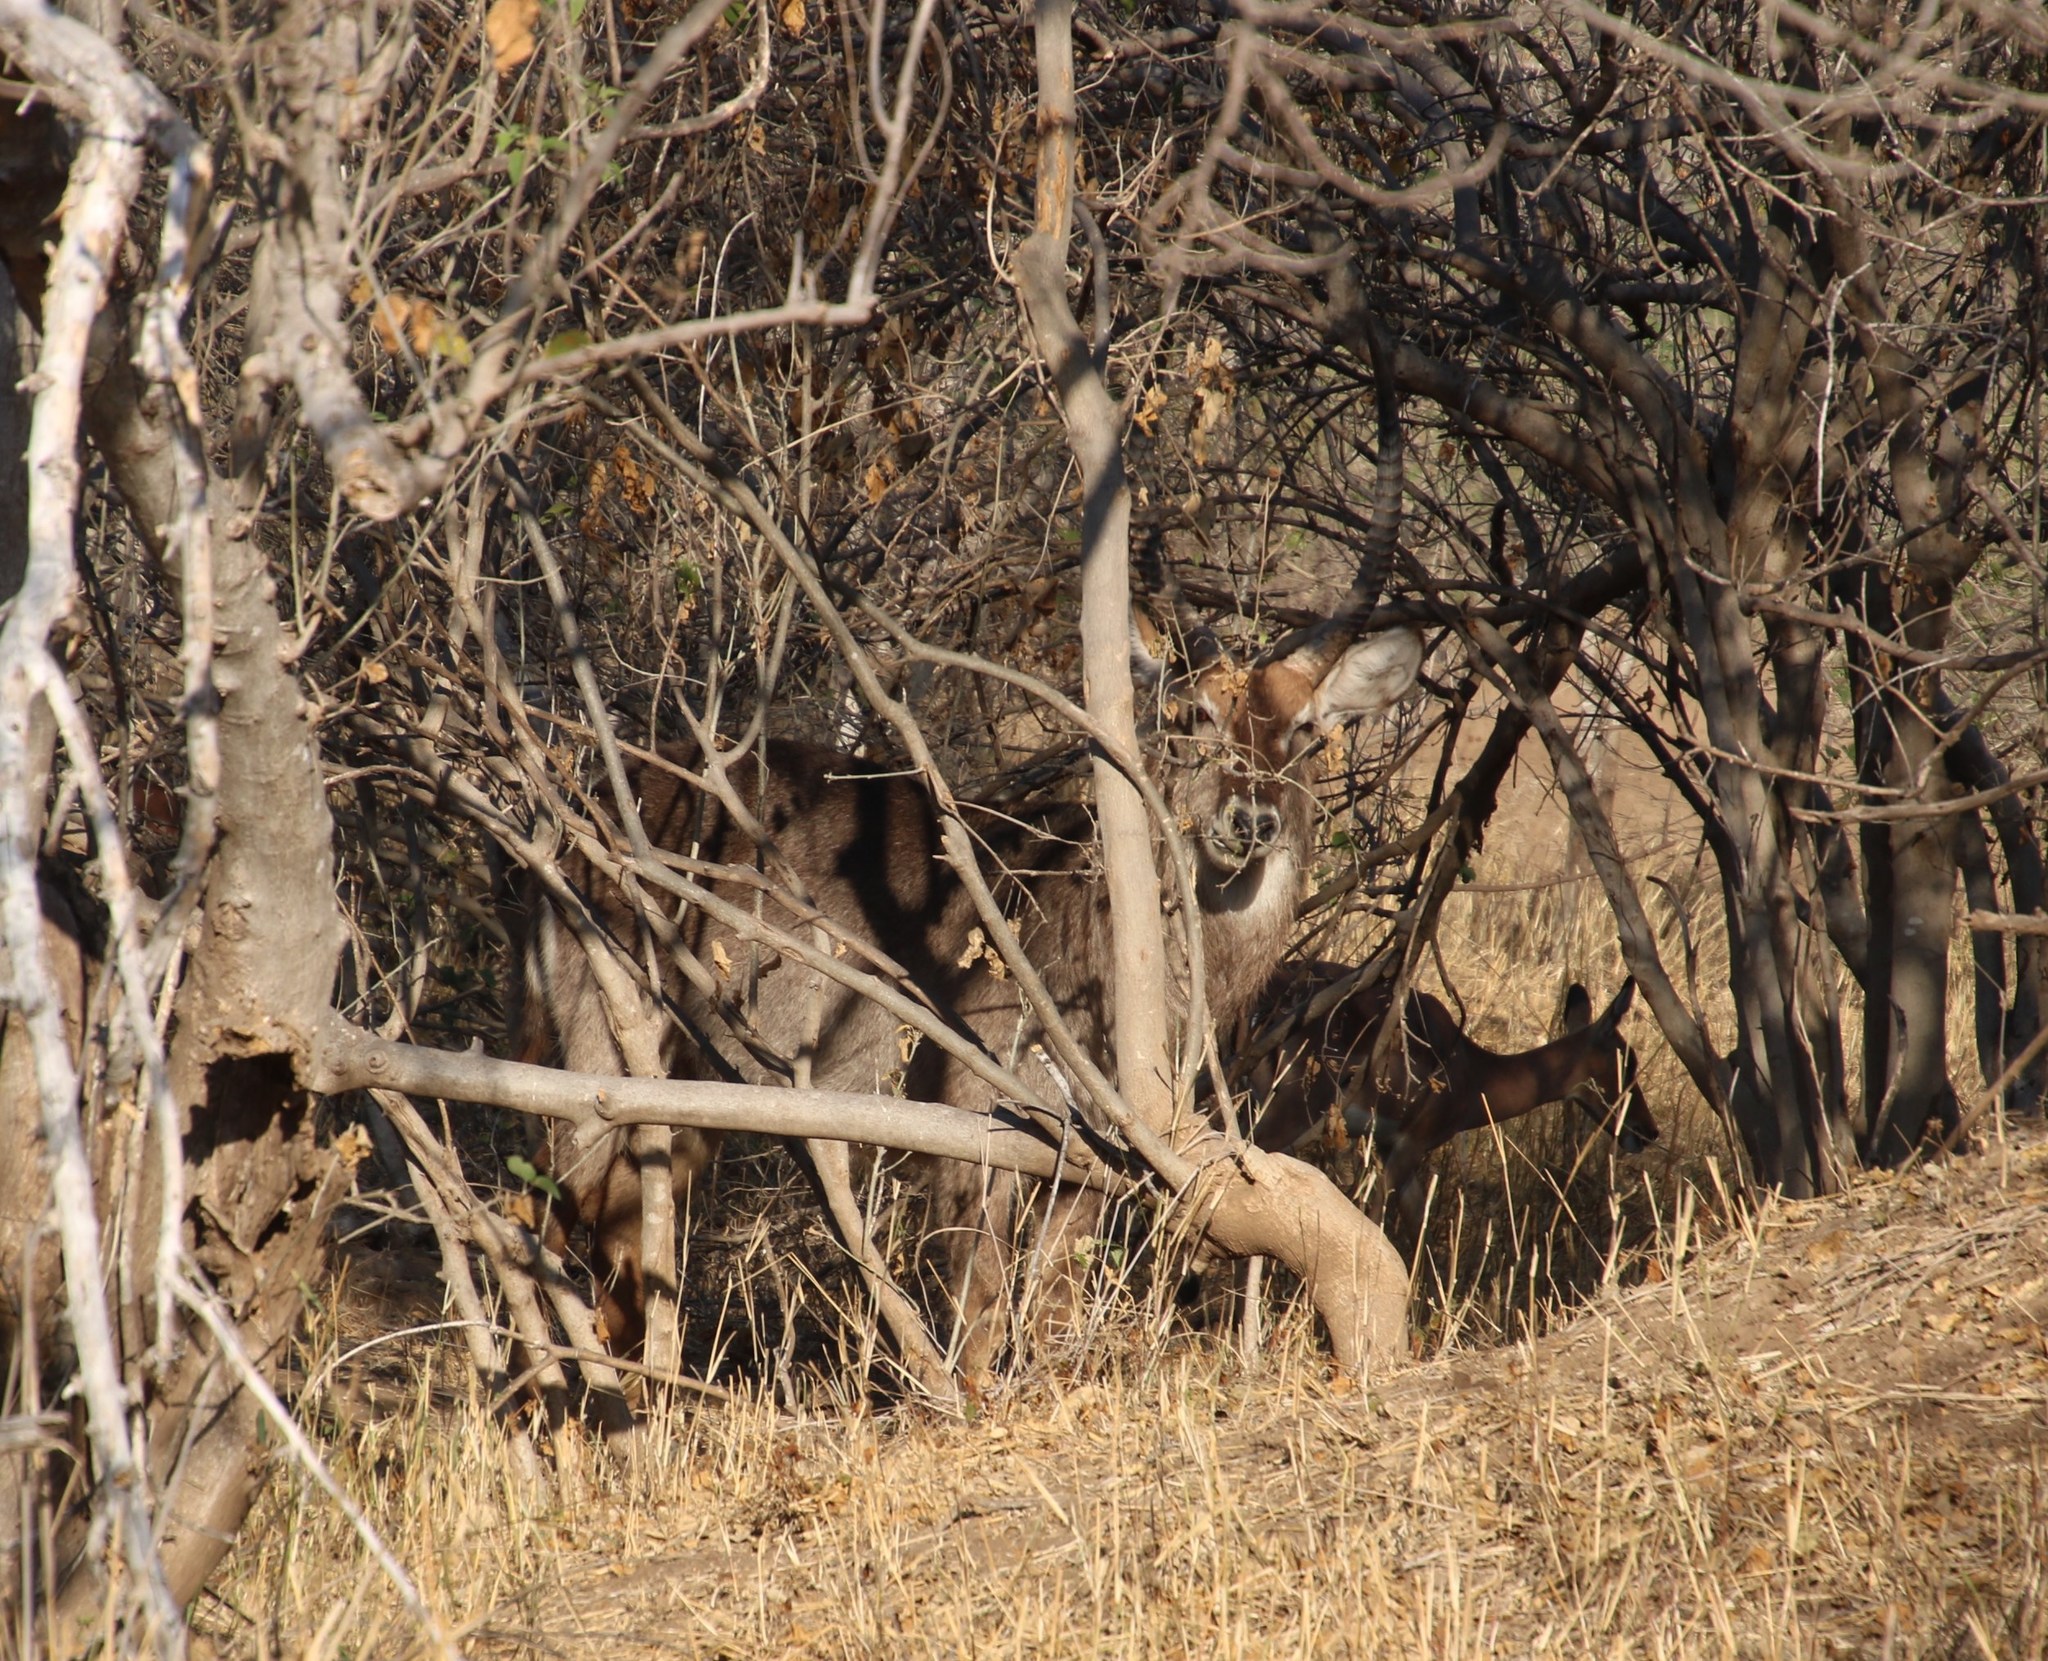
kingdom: Animalia
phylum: Chordata
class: Mammalia
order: Artiodactyla
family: Bovidae
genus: Kobus
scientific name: Kobus ellipsiprymnus
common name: Waterbuck
